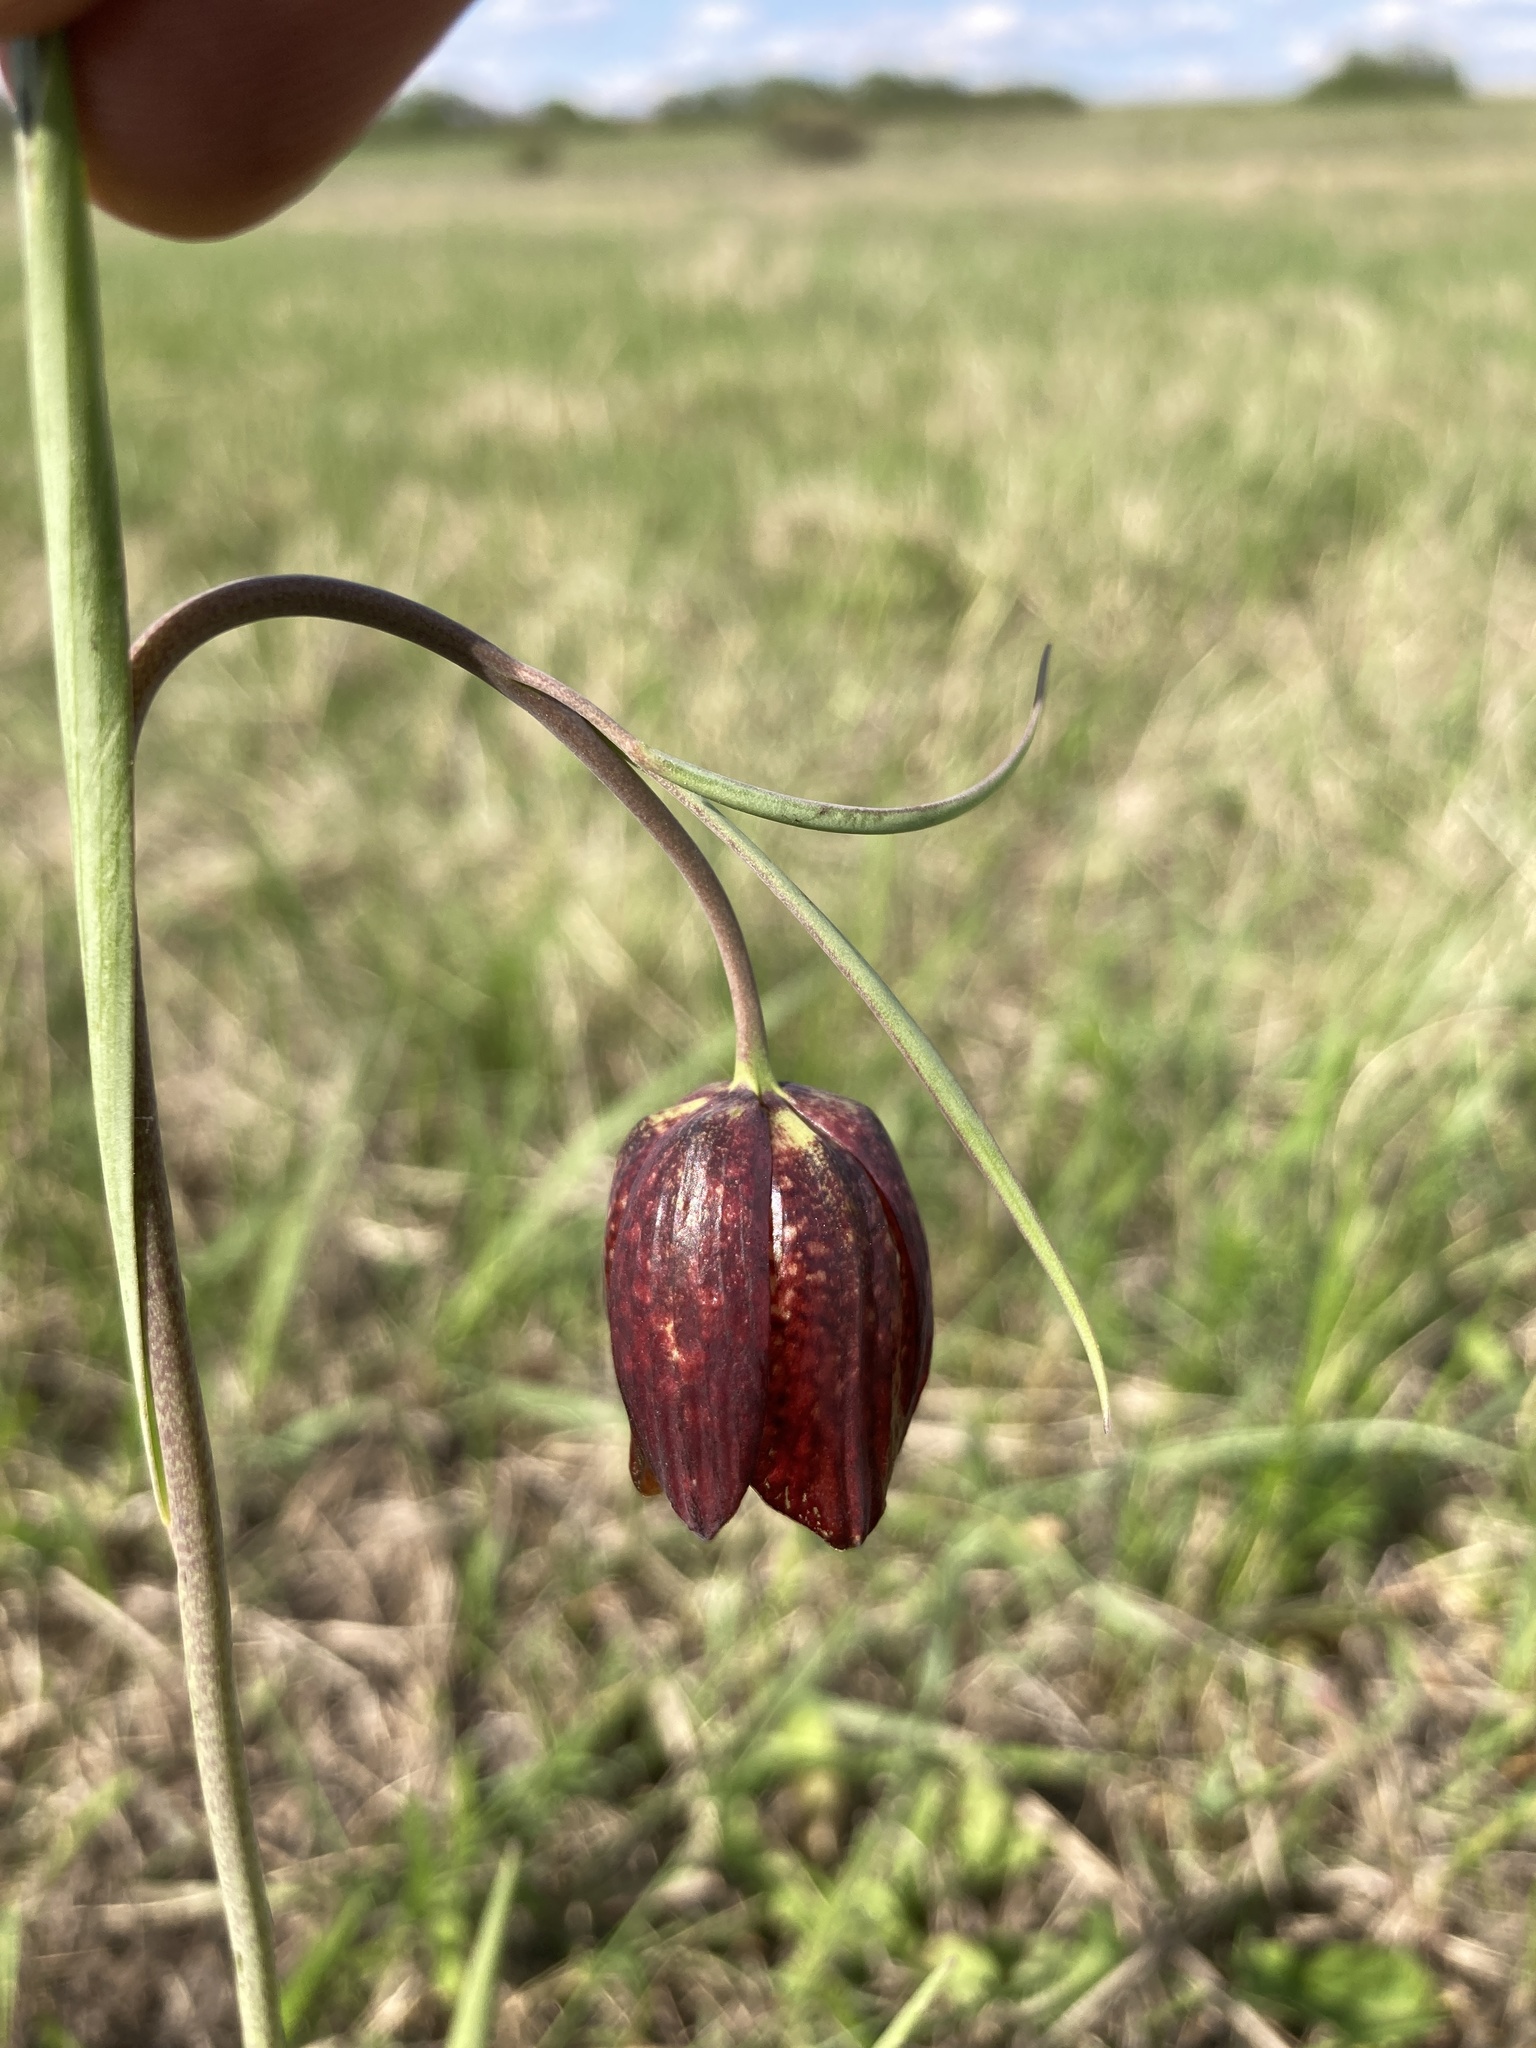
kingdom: Plantae
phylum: Tracheophyta
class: Liliopsida
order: Liliales
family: Liliaceae
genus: Fritillaria
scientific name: Fritillaria meleagroides
